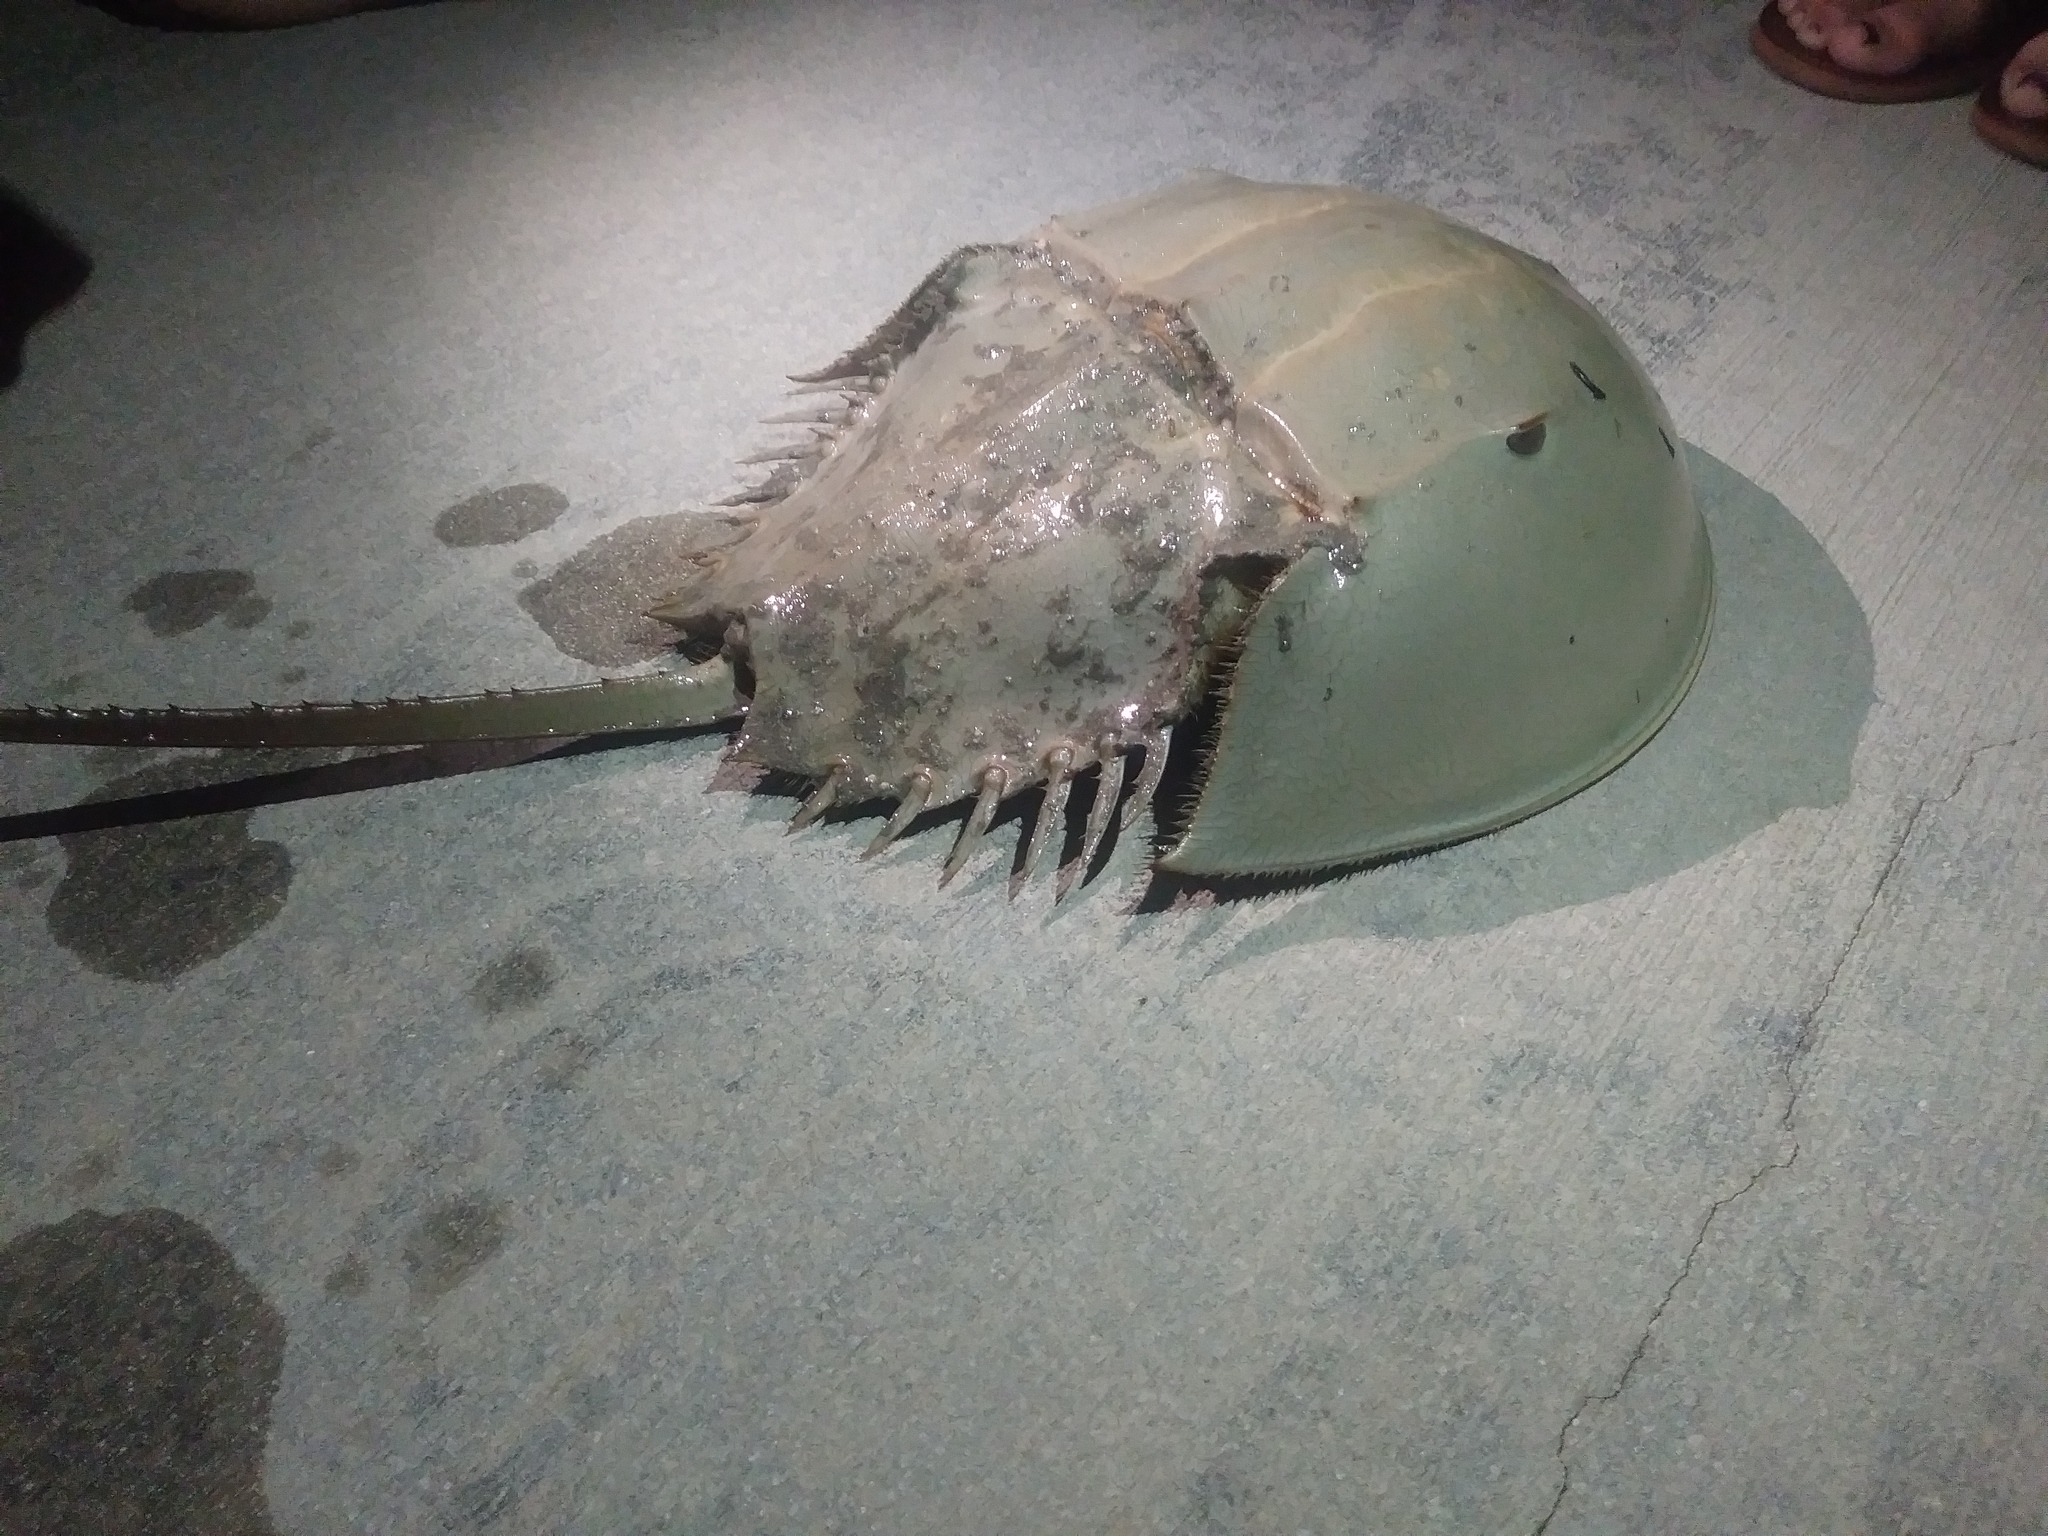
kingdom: Animalia
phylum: Arthropoda
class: Merostomata
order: Xiphosurida
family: Limulidae
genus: Limulus
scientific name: Limulus polyphemus
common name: Horseshoe crab
